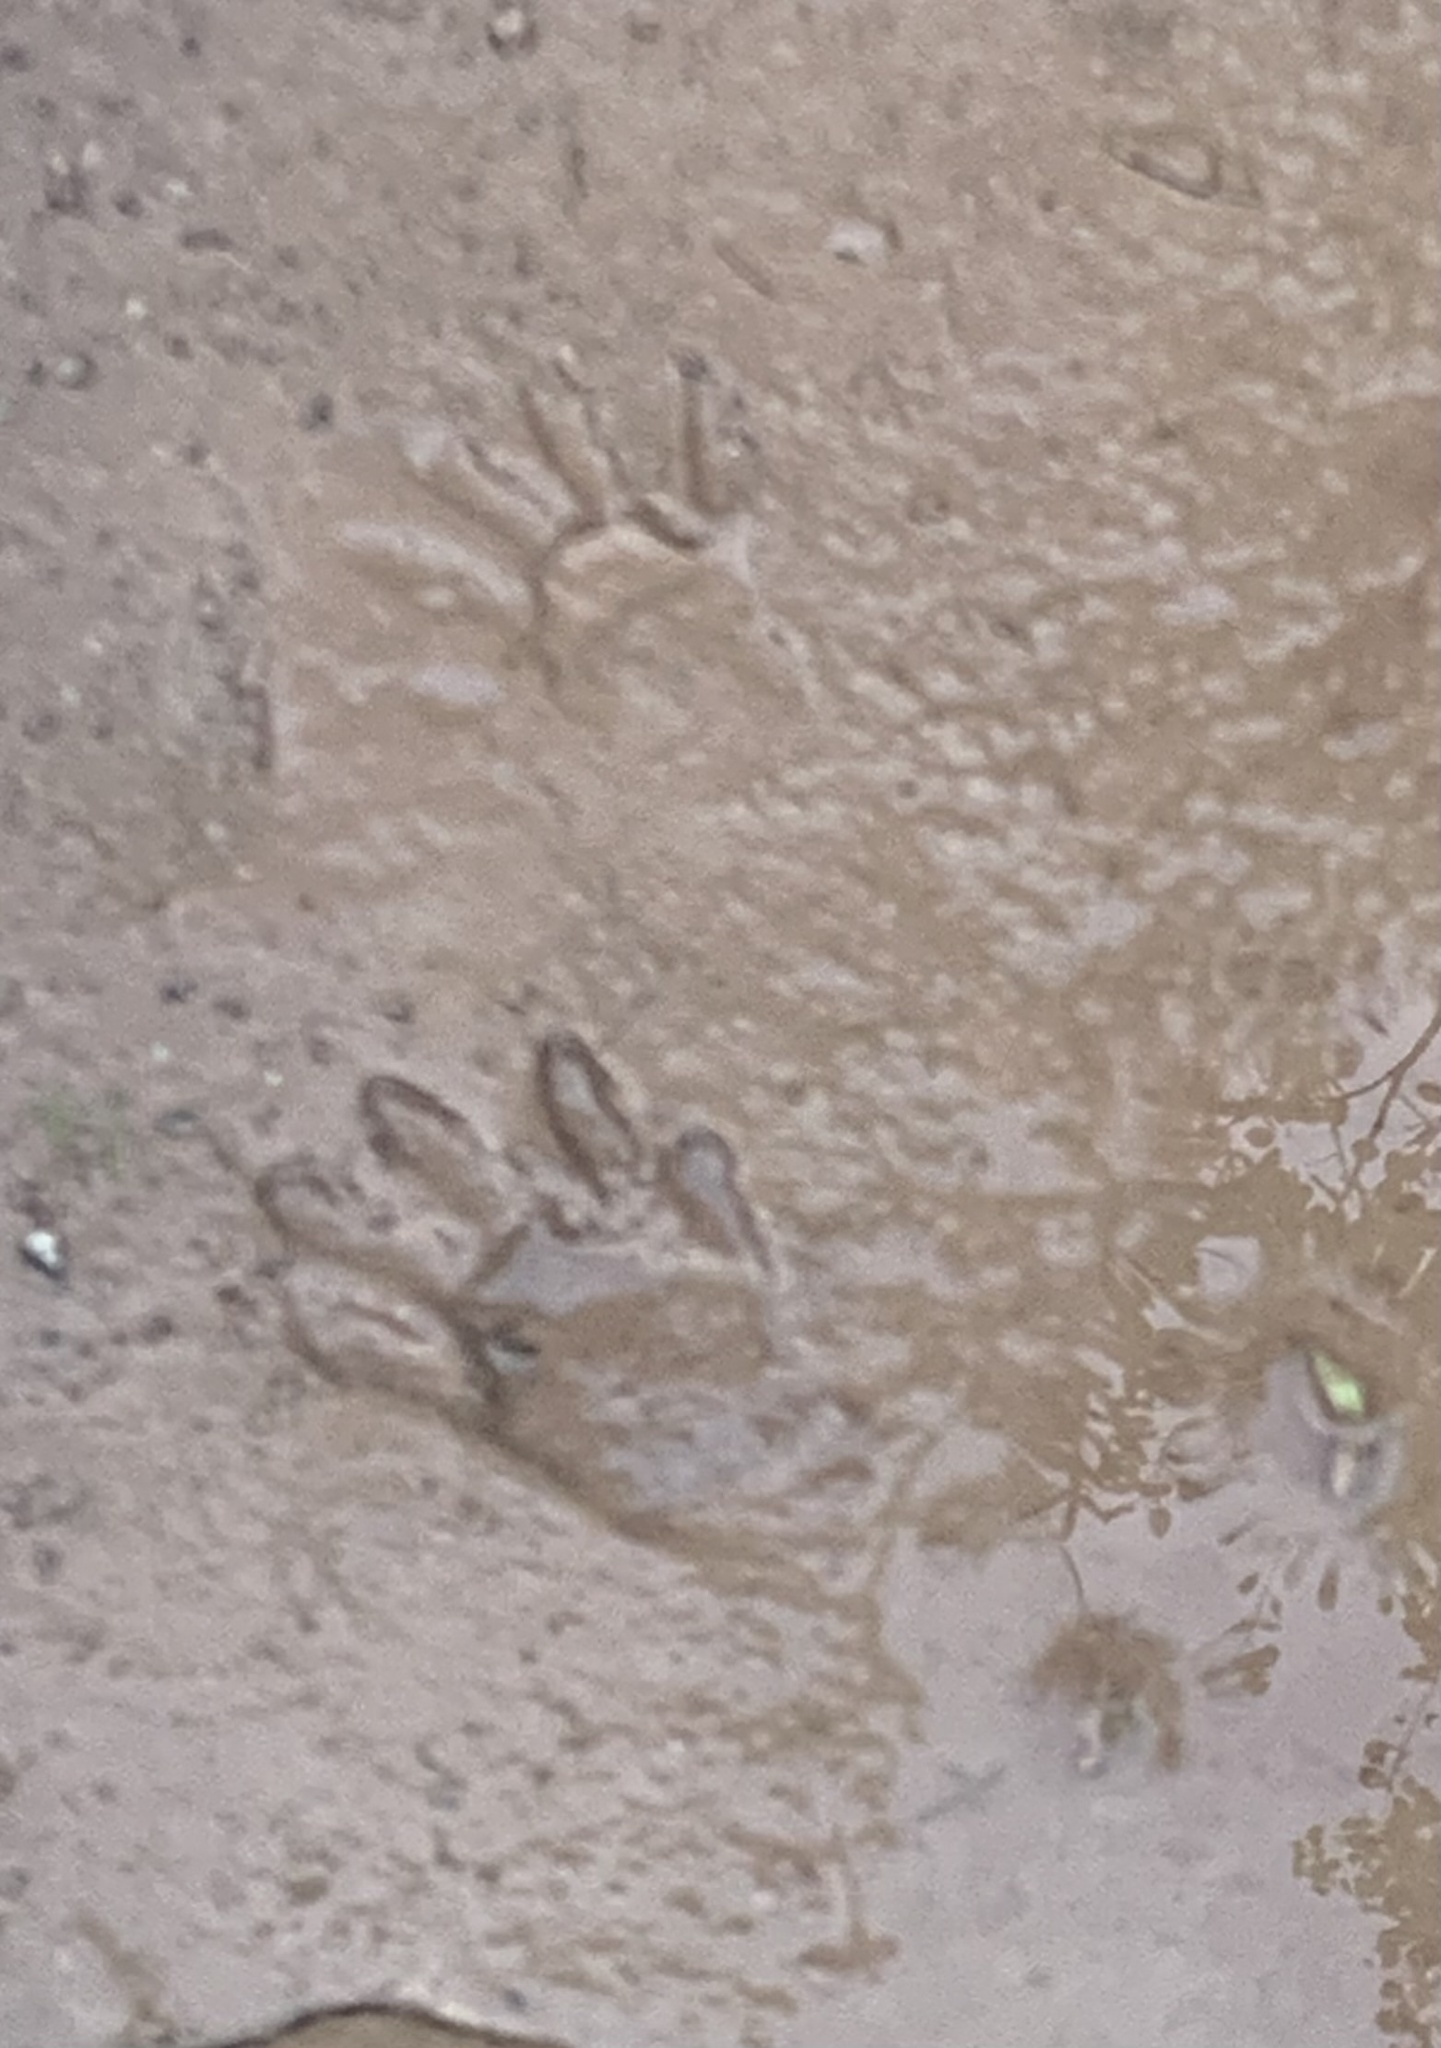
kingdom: Animalia
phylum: Chordata
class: Mammalia
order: Carnivora
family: Procyonidae
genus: Procyon
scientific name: Procyon lotor
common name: Raccoon
